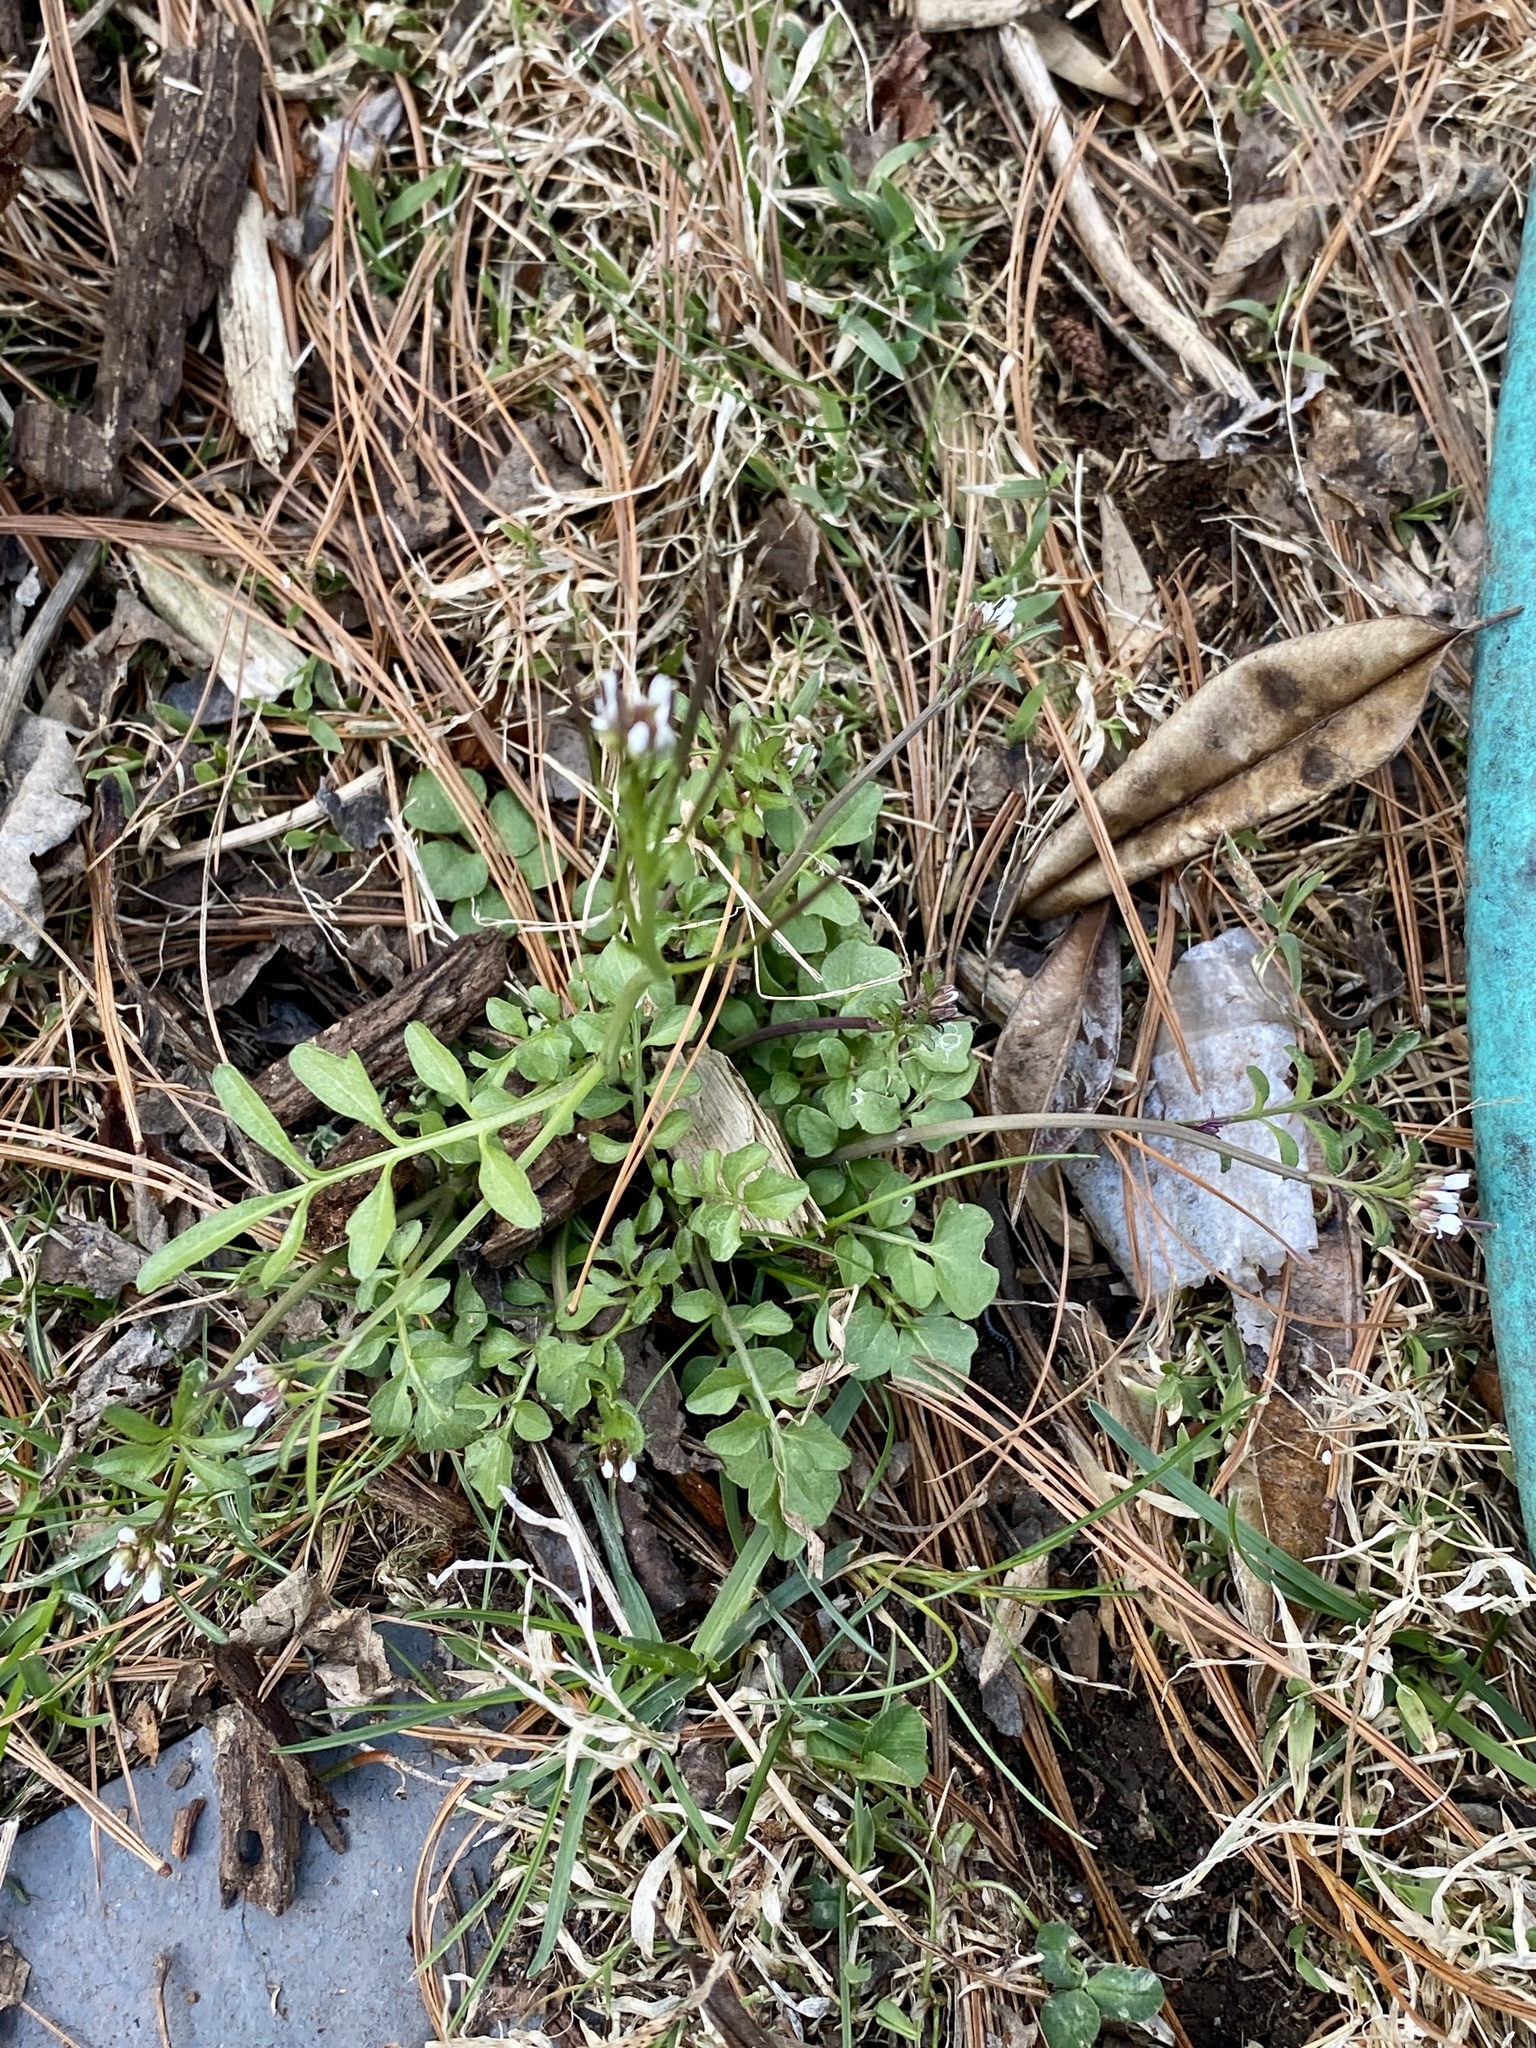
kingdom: Plantae
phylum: Tracheophyta
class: Magnoliopsida
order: Brassicales
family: Brassicaceae
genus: Cardamine
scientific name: Cardamine hirsuta
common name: Hairy bittercress
